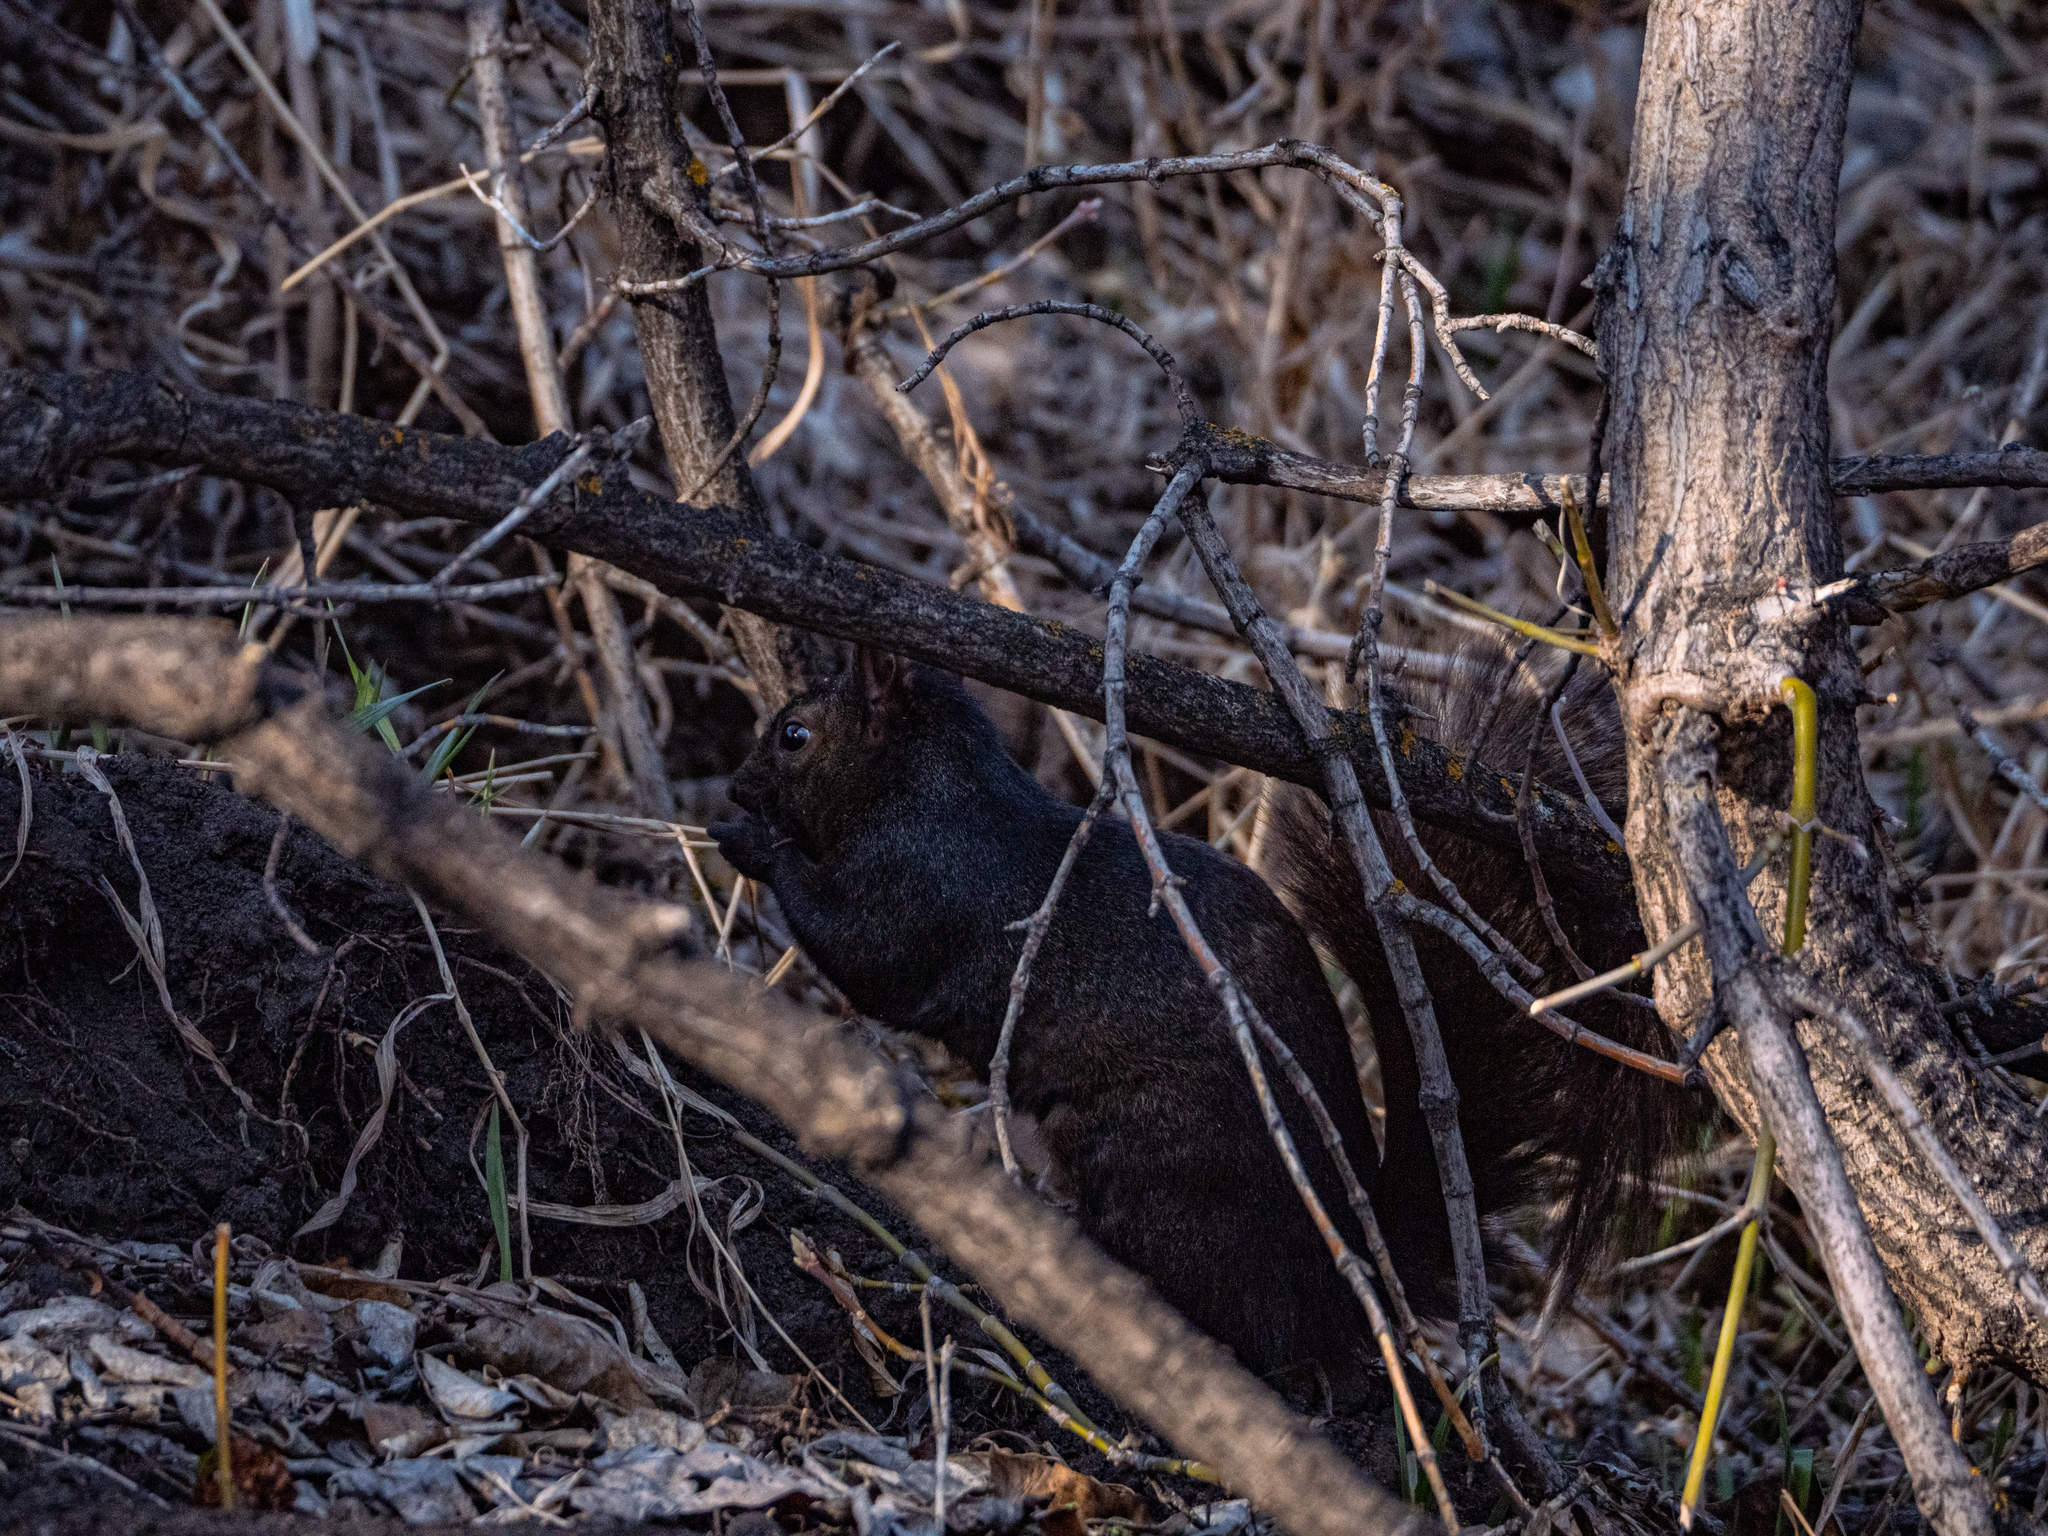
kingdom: Animalia
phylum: Chordata
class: Mammalia
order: Rodentia
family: Sciuridae
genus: Sciurus
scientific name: Sciurus carolinensis
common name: Eastern gray squirrel
